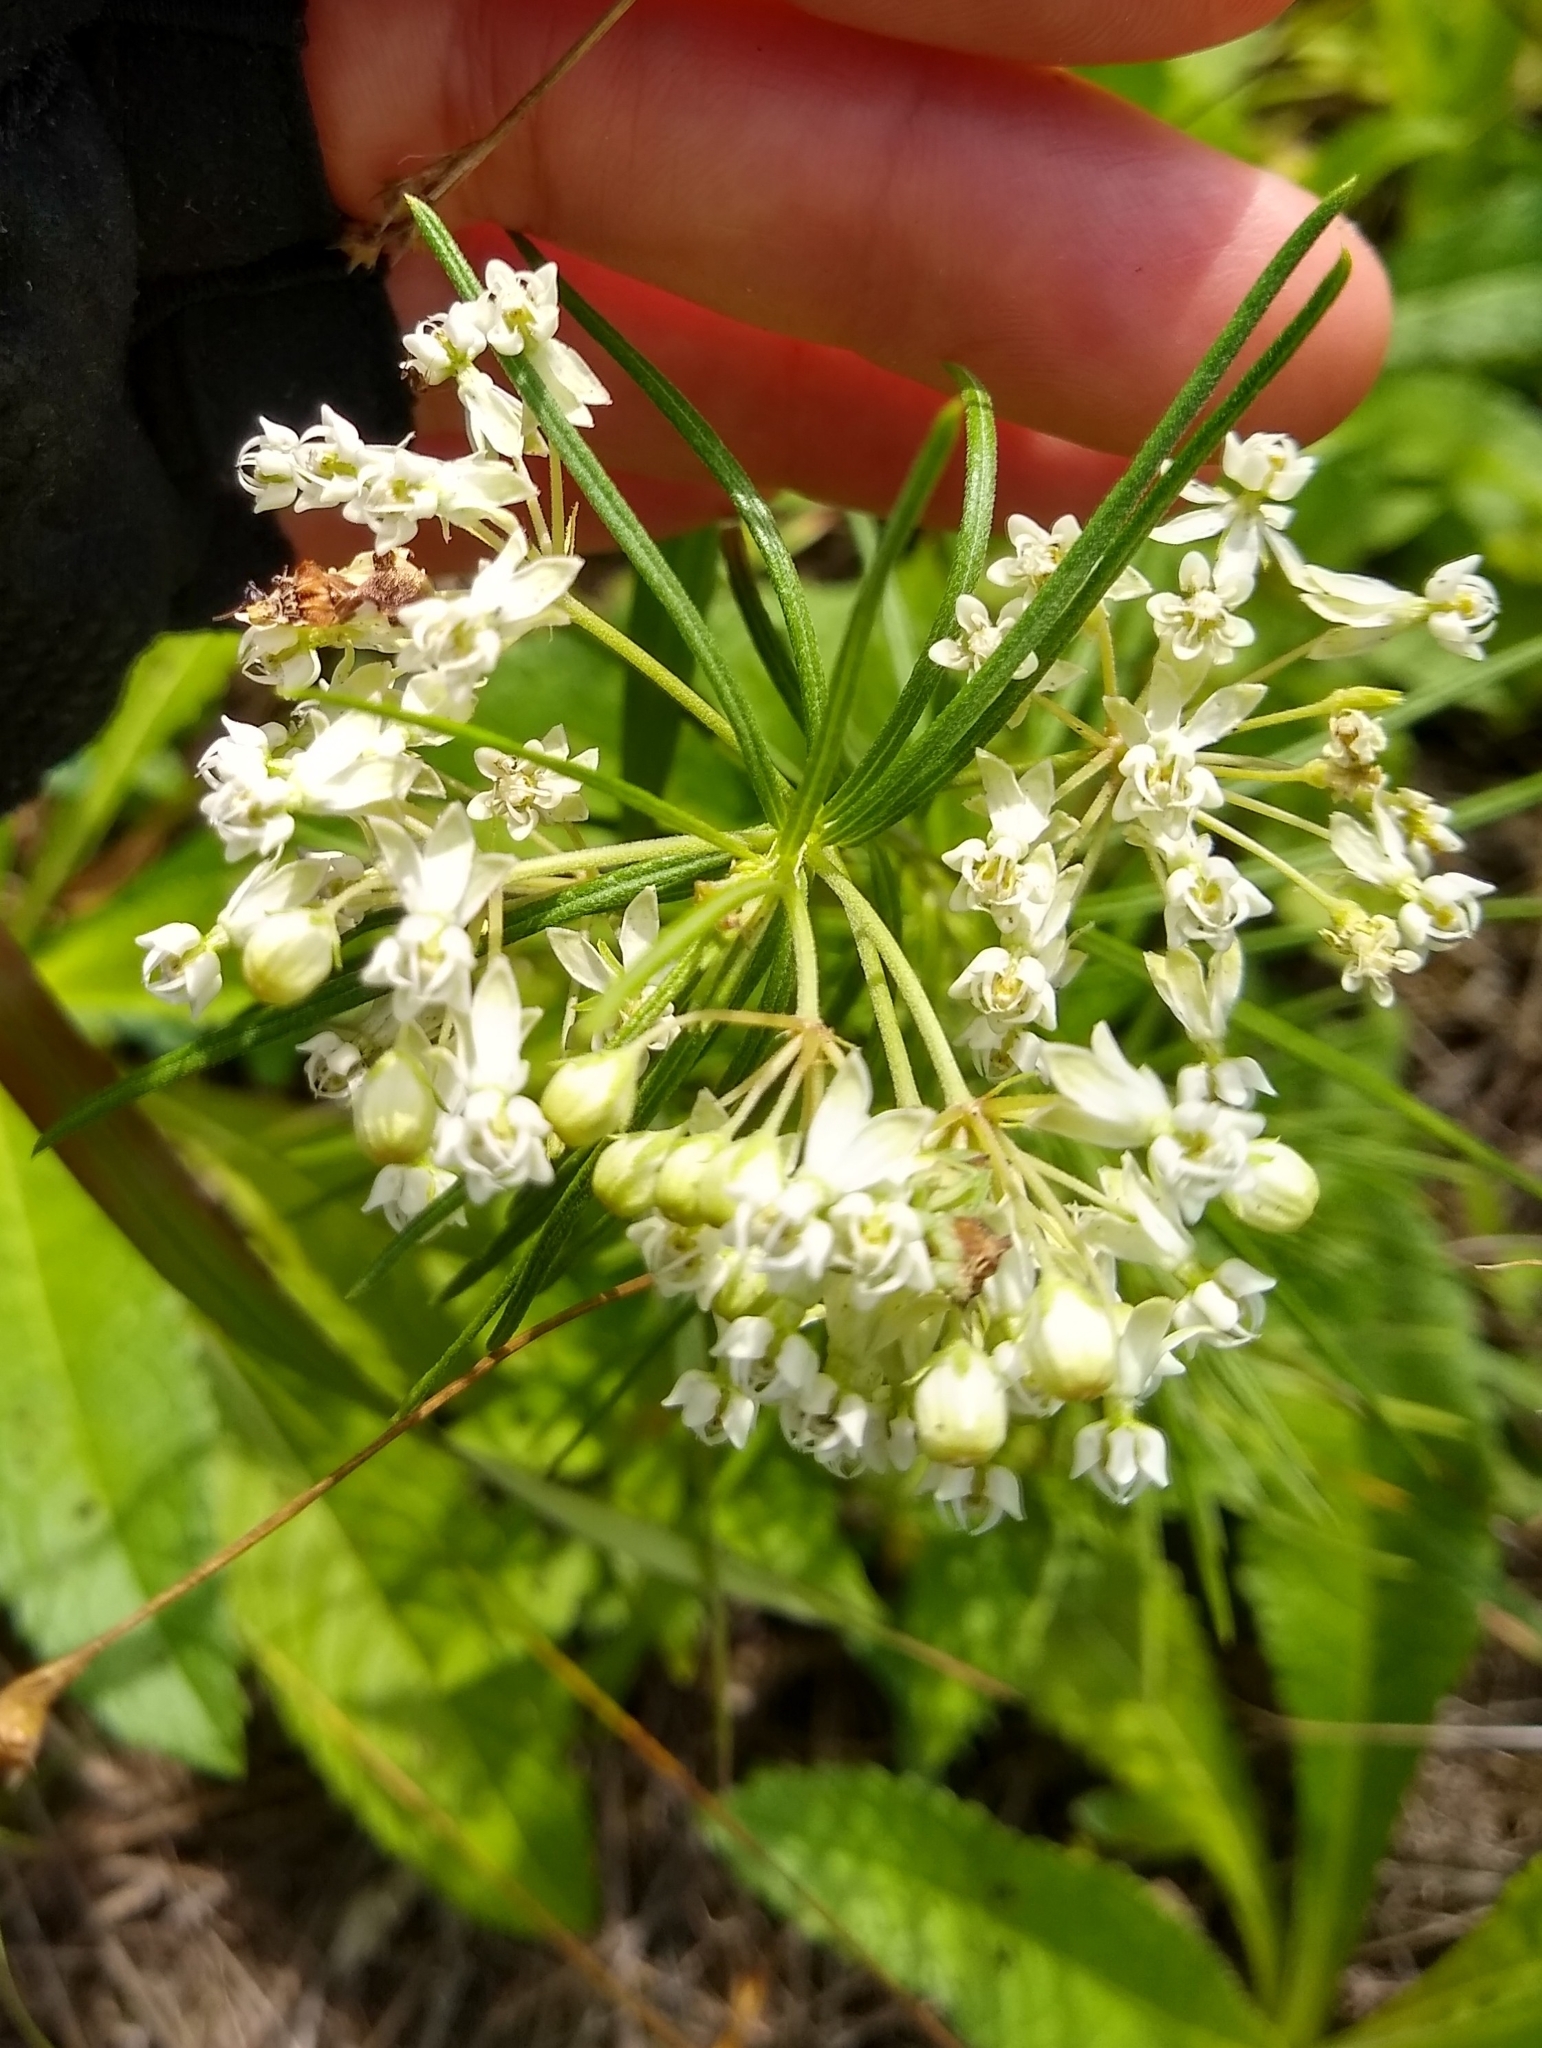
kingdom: Plantae
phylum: Tracheophyta
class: Magnoliopsida
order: Gentianales
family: Apocynaceae
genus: Asclepias
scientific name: Asclepias verticillata
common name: Eastern whorled milkweed
